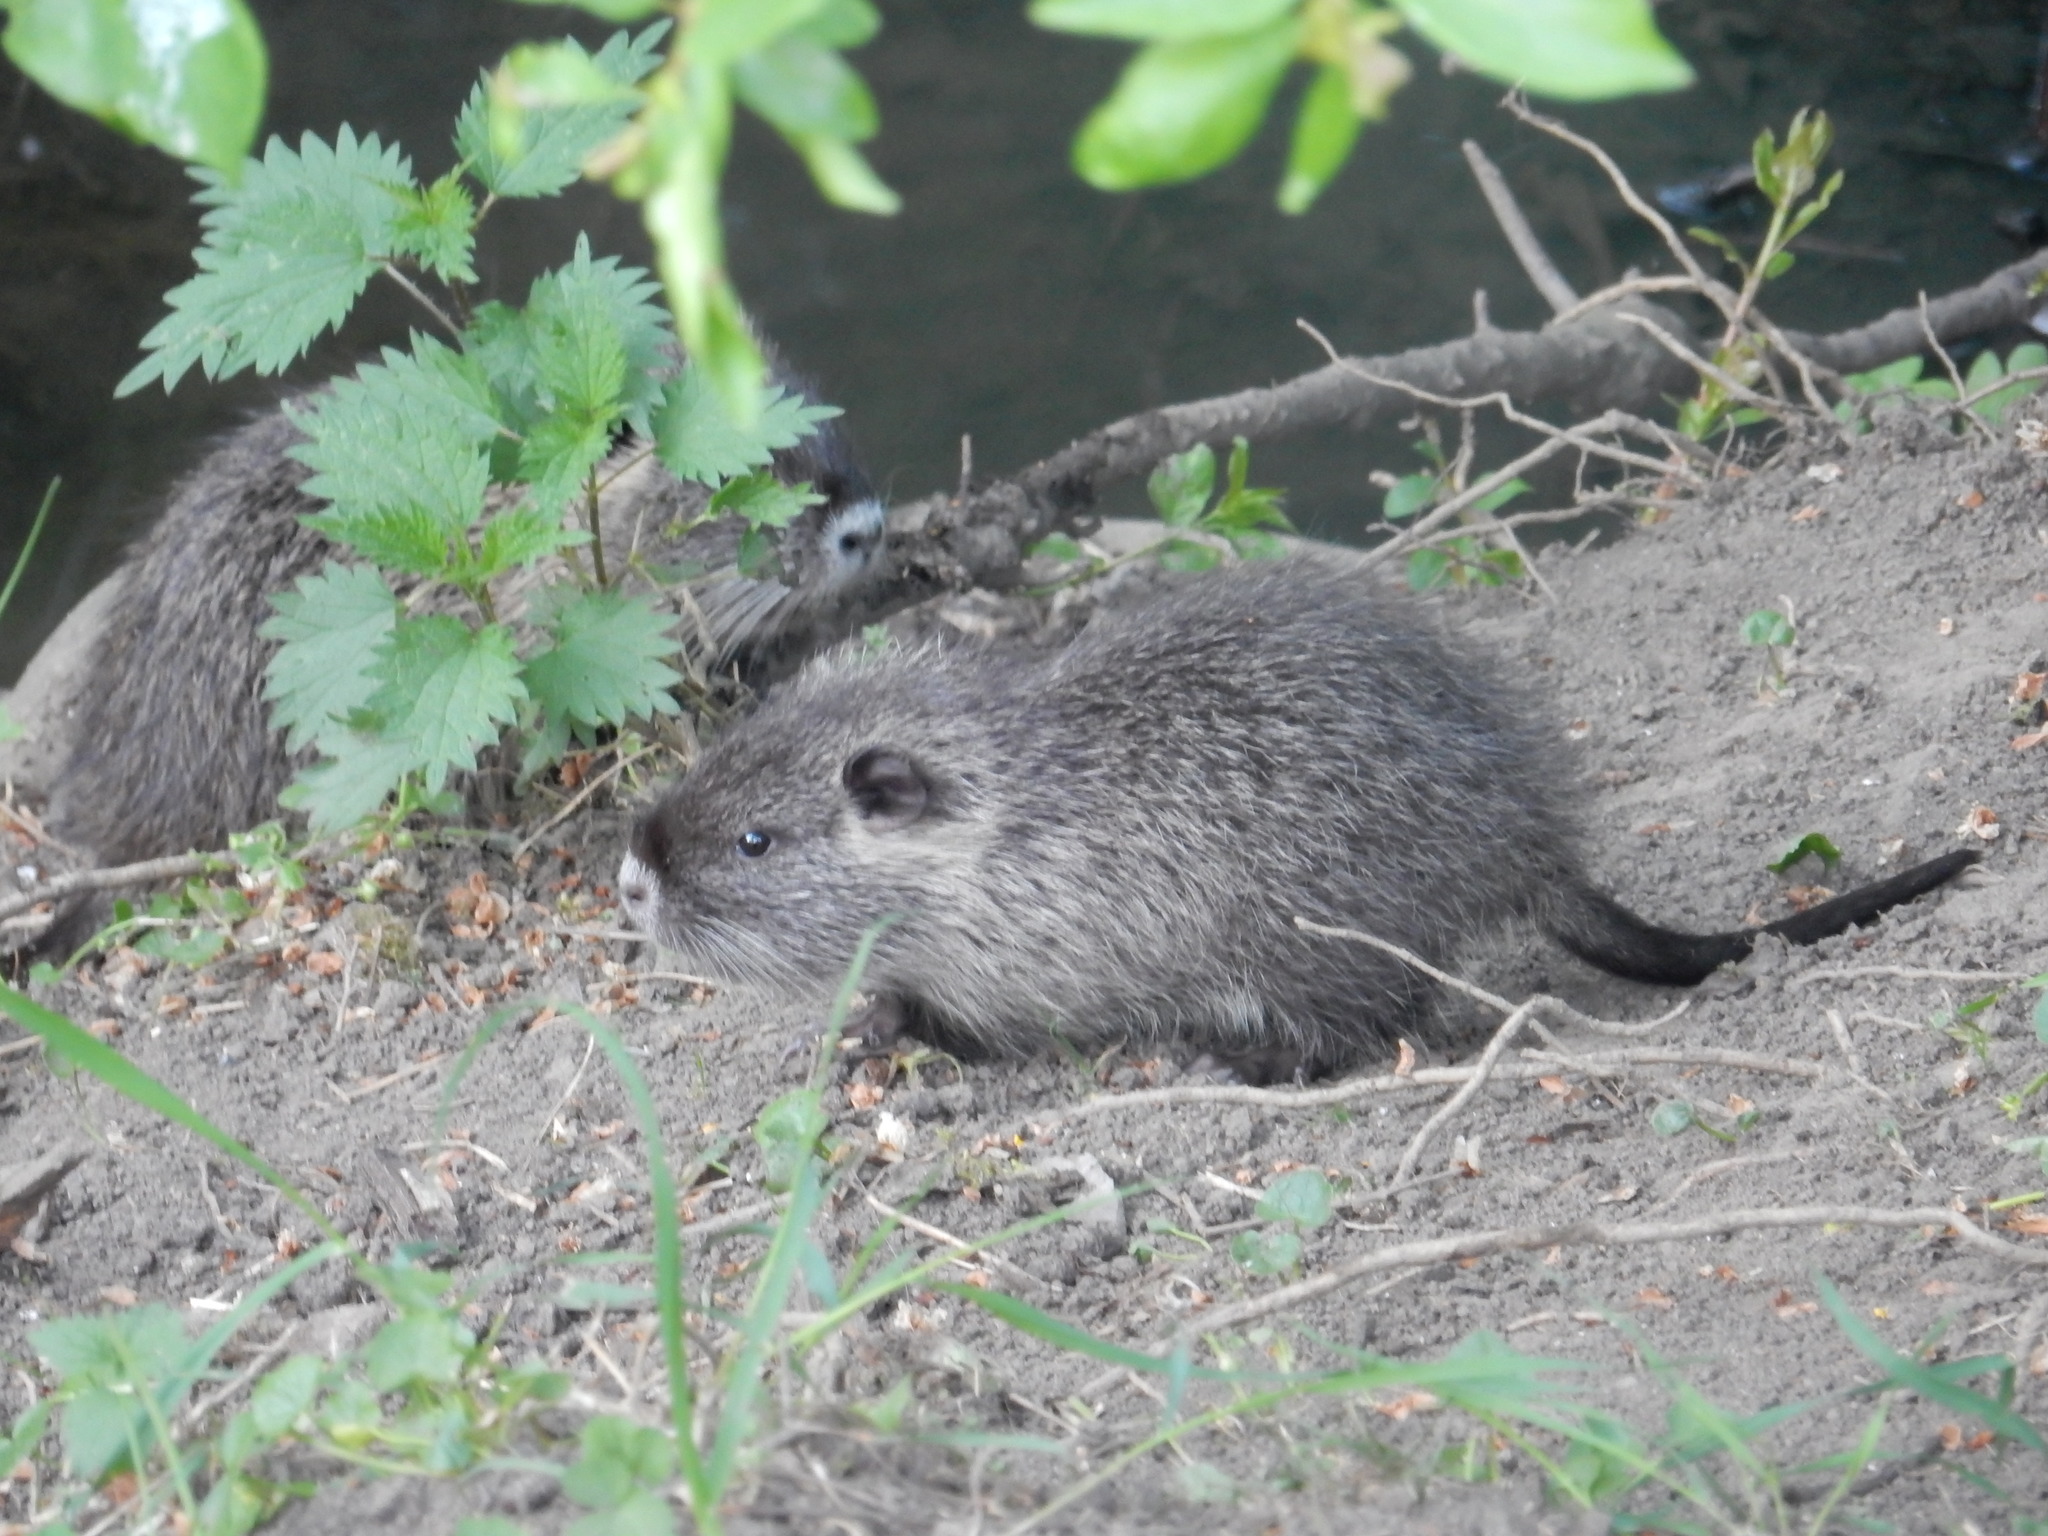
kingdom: Animalia
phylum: Chordata
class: Mammalia
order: Rodentia
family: Myocastoridae
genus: Myocastor
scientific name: Myocastor coypus
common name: Coypu
